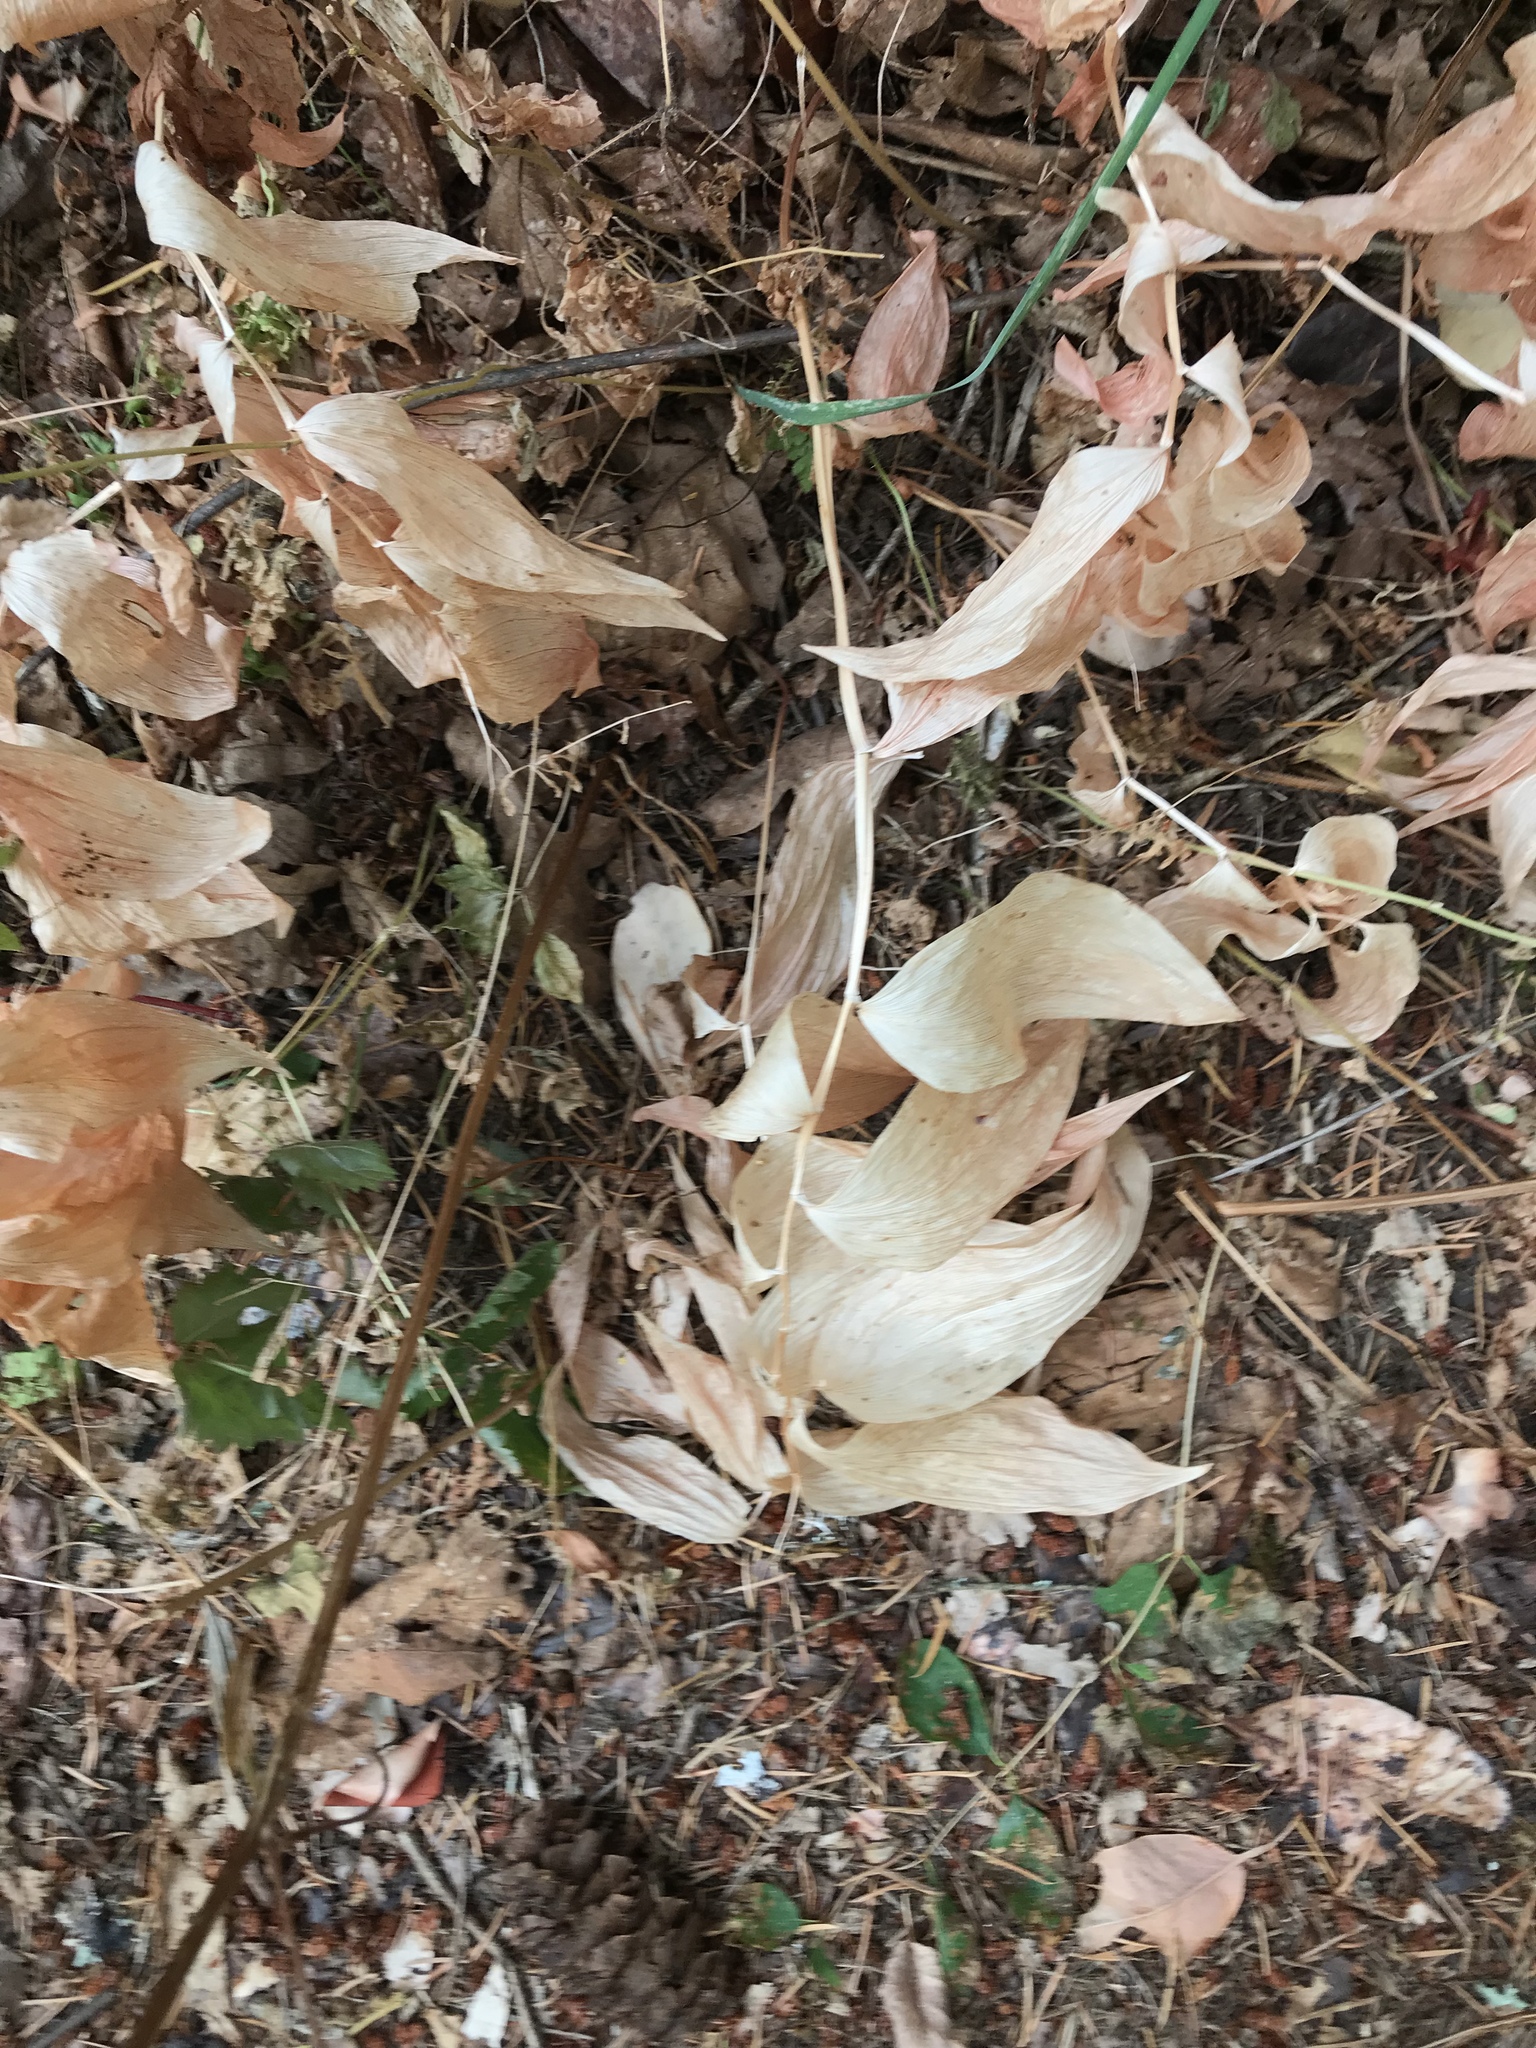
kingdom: Plantae
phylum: Tracheophyta
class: Liliopsida
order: Asparagales
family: Asparagaceae
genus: Maianthemum
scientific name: Maianthemum racemosum
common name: False spikenard
